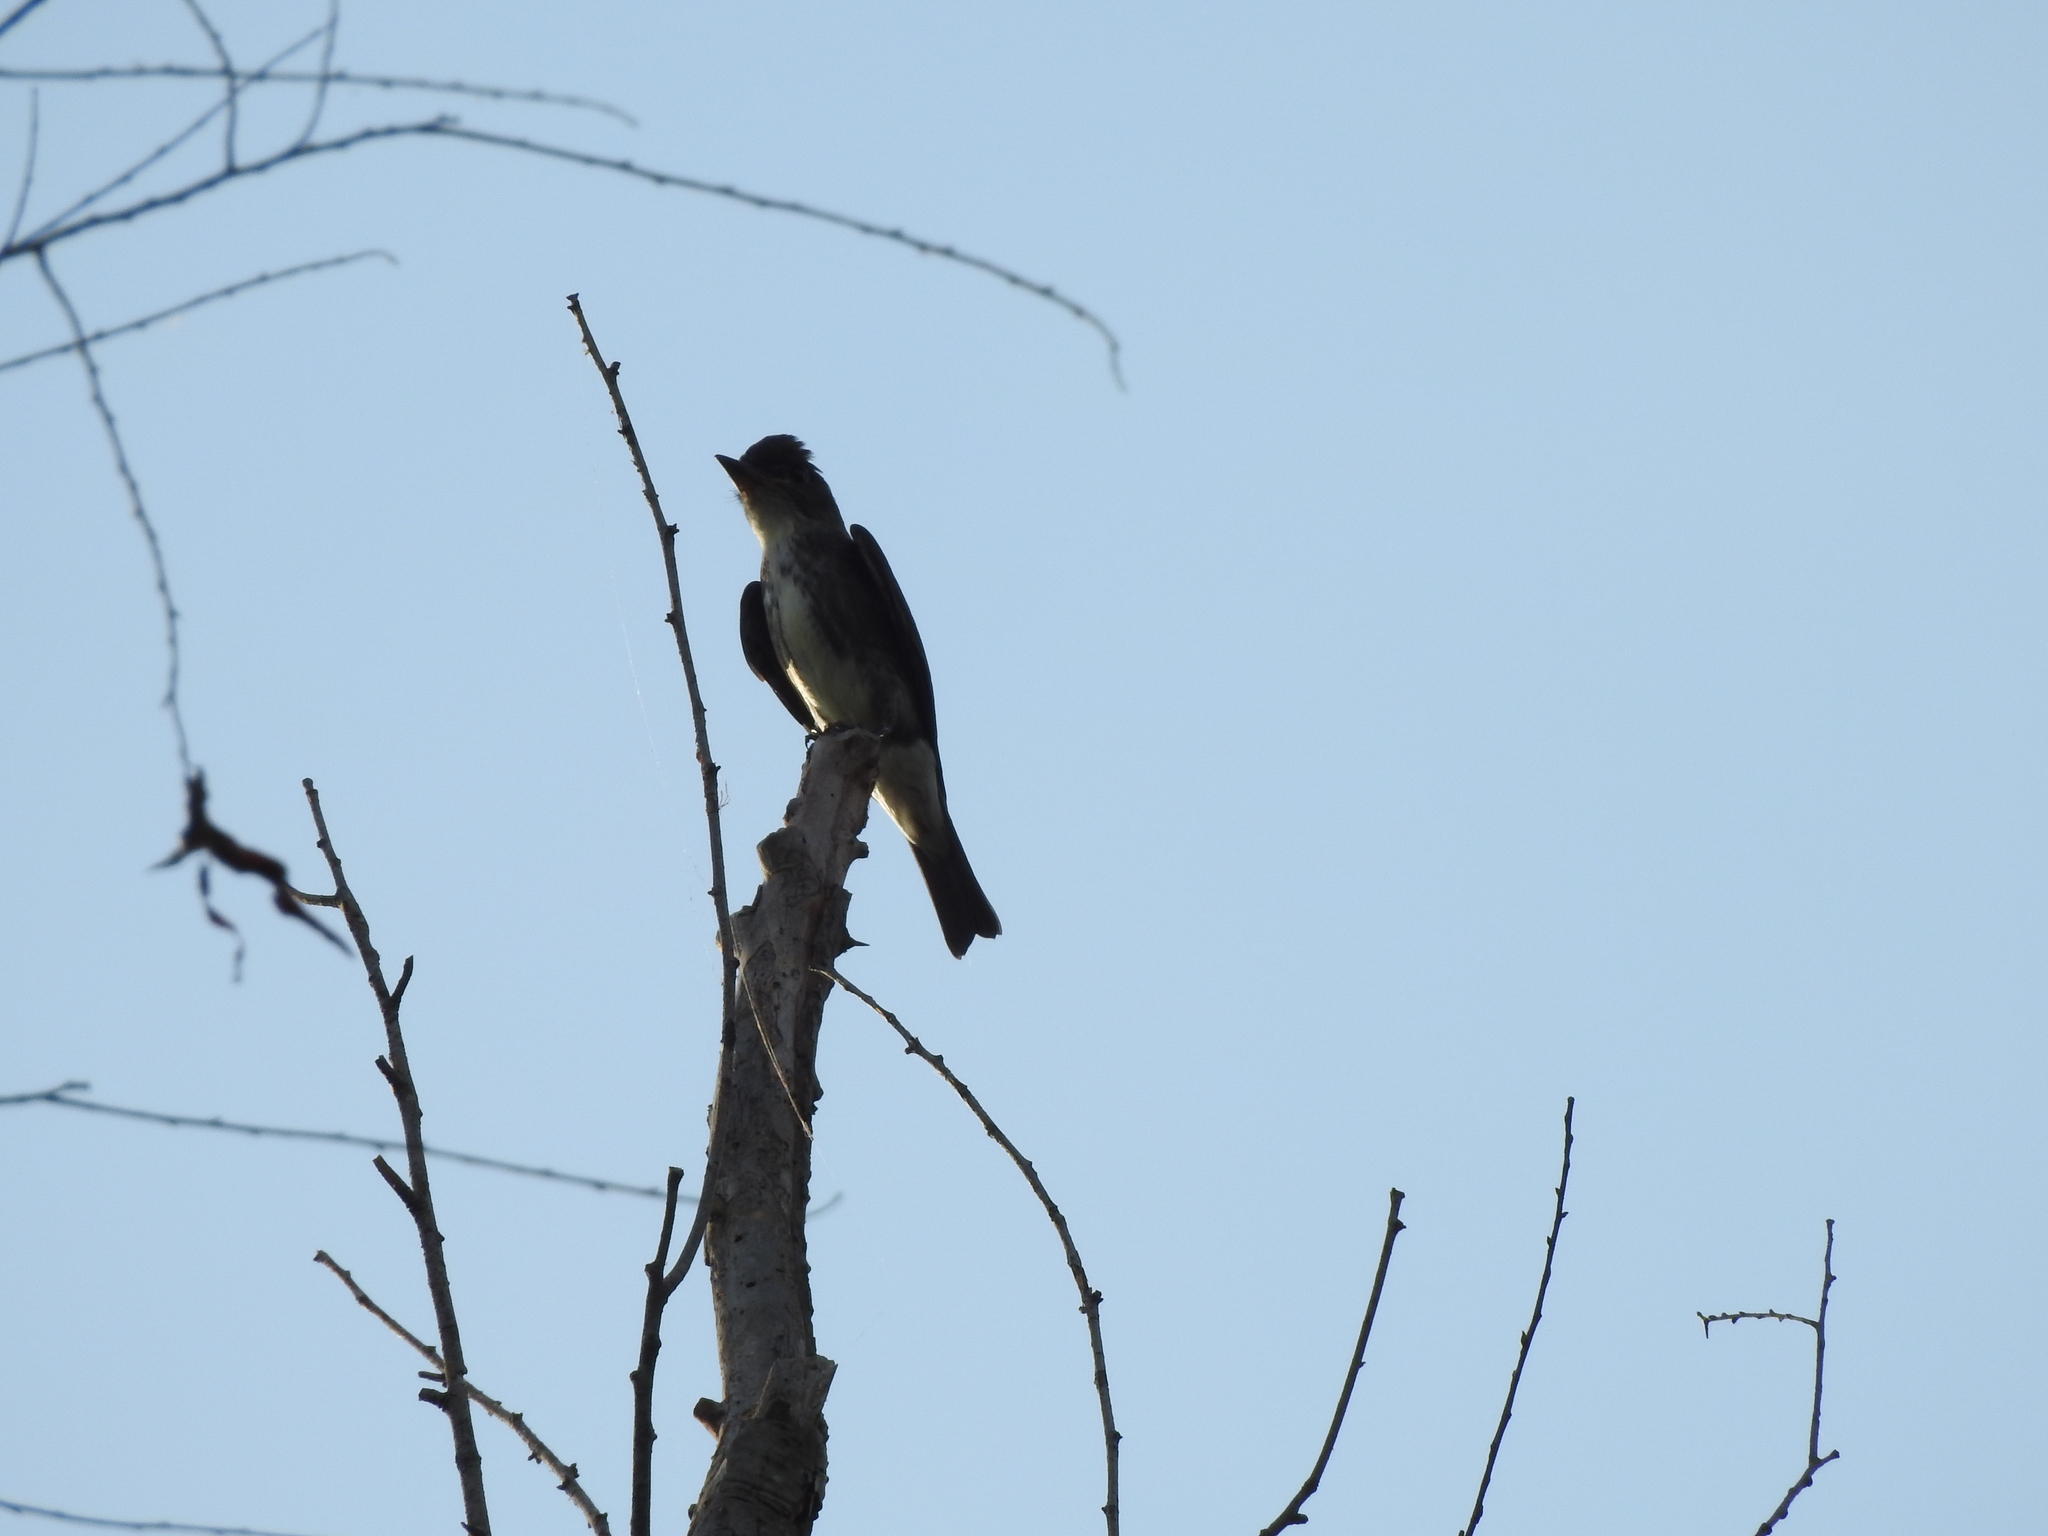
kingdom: Animalia
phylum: Chordata
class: Aves
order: Passeriformes
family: Tyrannidae
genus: Contopus
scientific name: Contopus cooperi
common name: Olive-sided flycatcher
